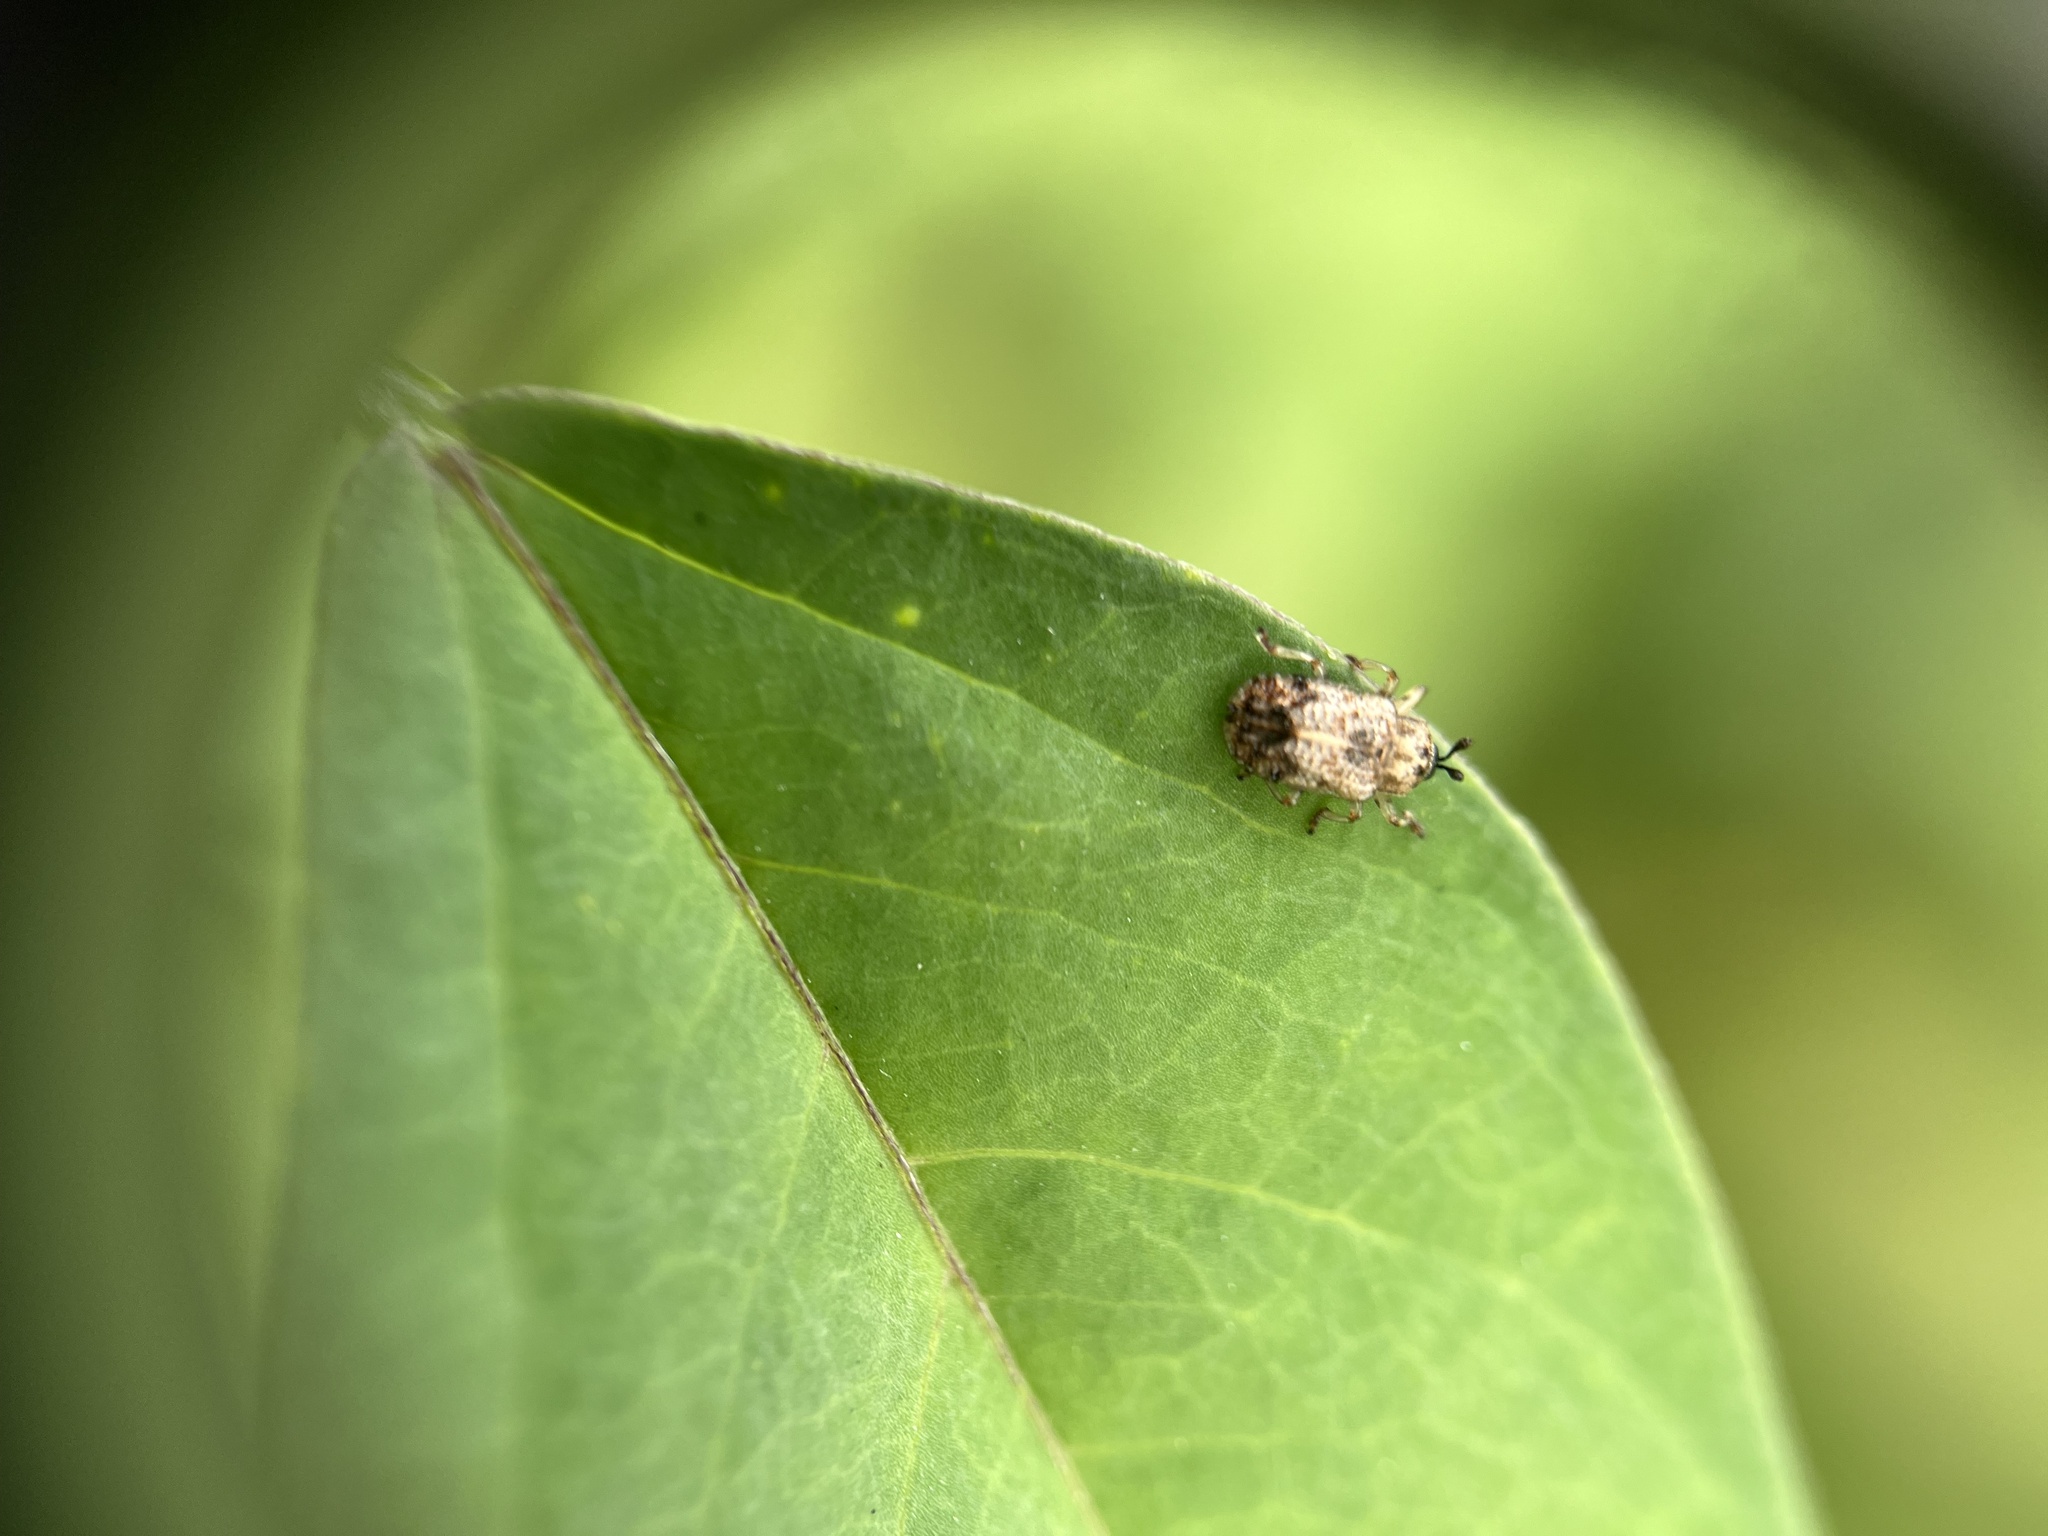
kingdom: Animalia
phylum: Arthropoda
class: Insecta
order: Coleoptera
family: Chrysomelidae
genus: Brachycoryna
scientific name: Brachycoryna pumila
